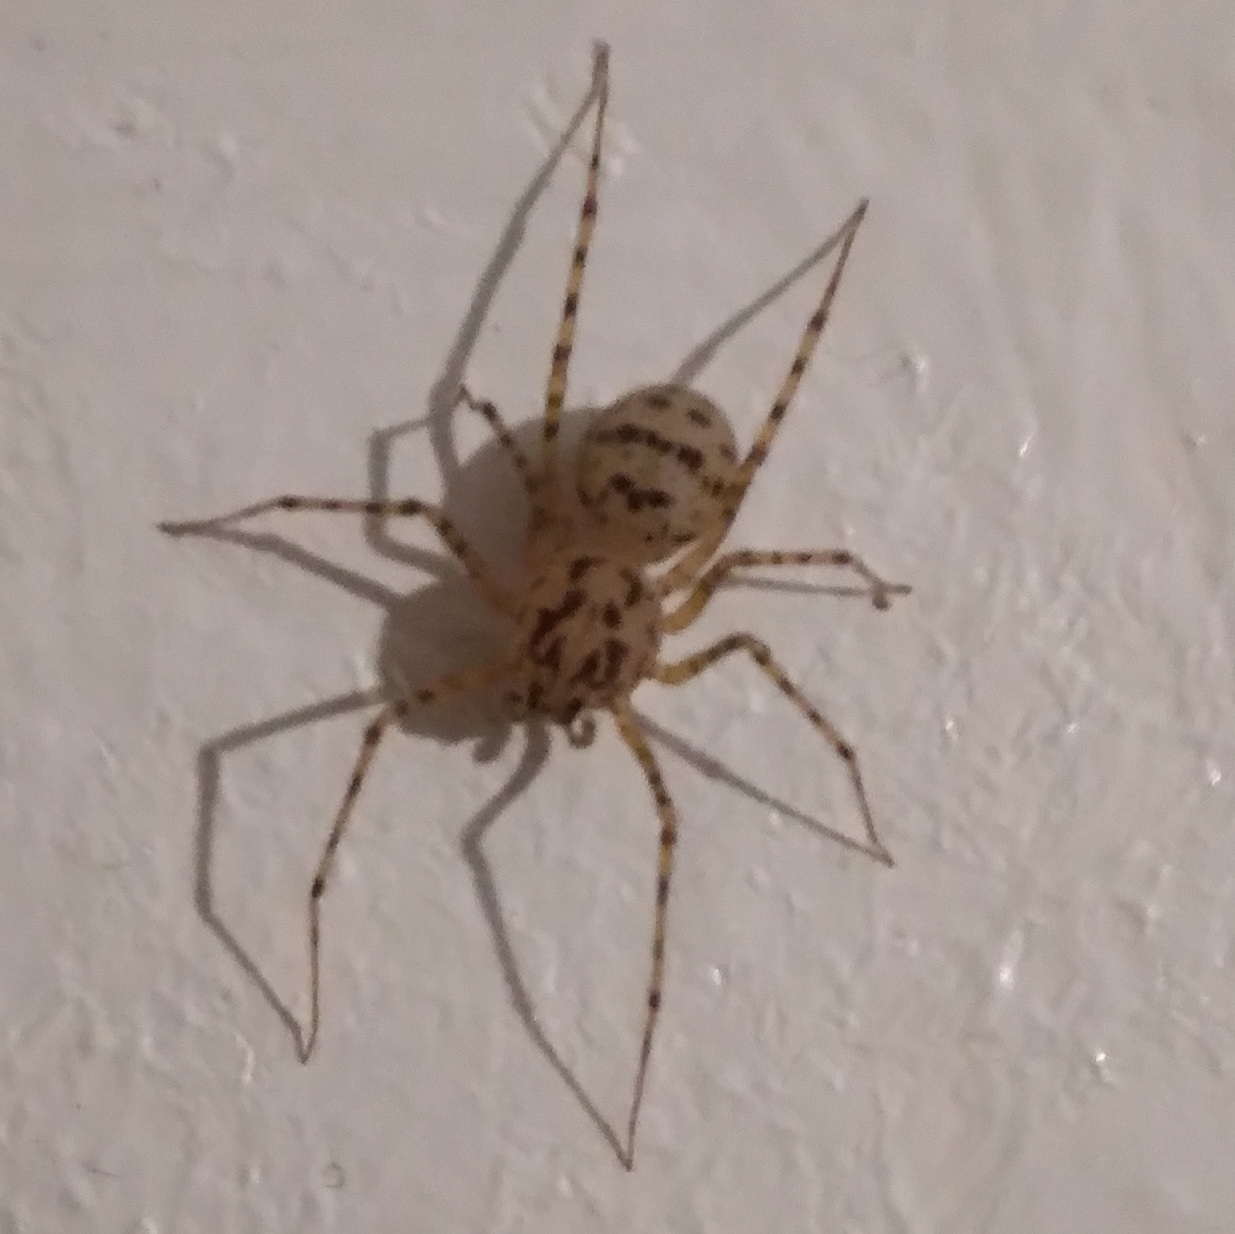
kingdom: Animalia
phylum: Arthropoda
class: Arachnida
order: Araneae
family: Scytodidae
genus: Scytodes
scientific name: Scytodes thoracica
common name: Spitting spider
